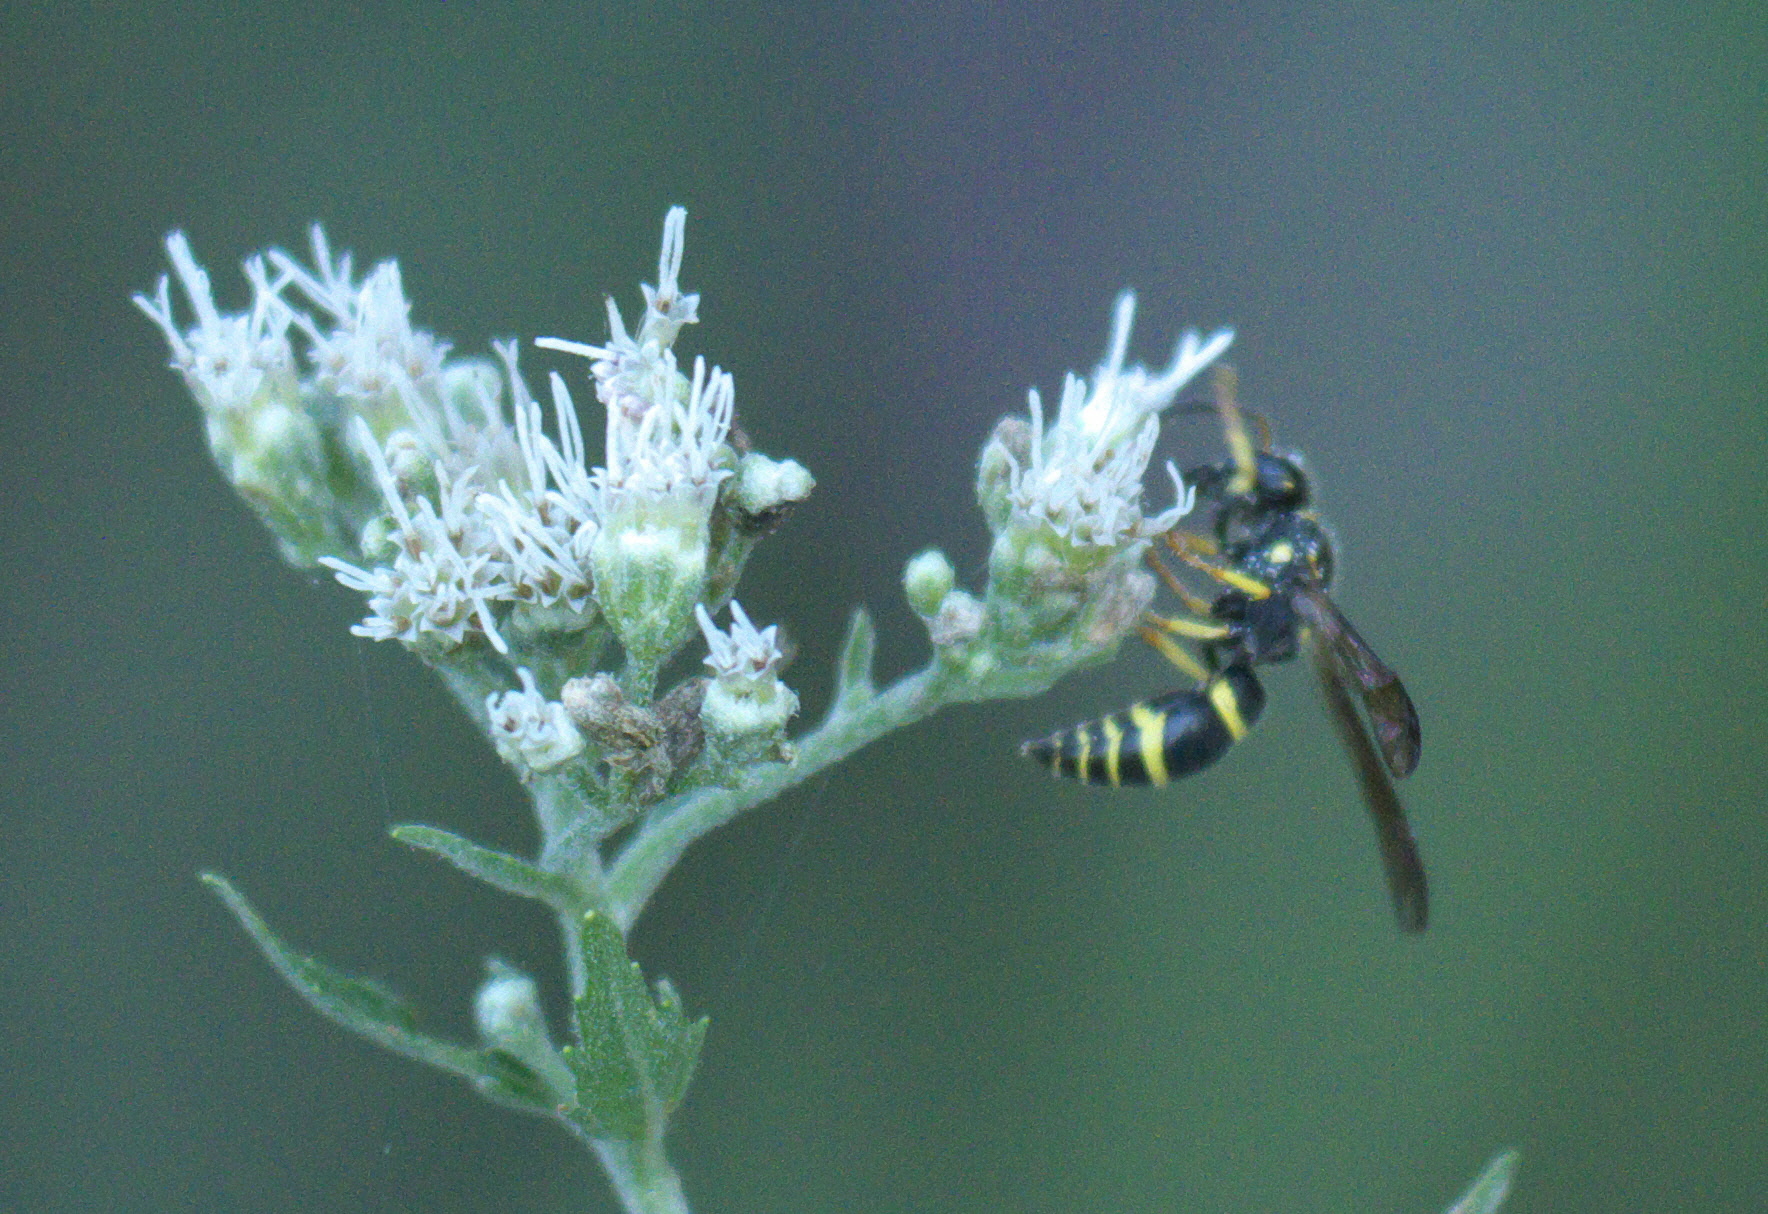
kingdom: Animalia
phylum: Arthropoda
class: Insecta
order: Hymenoptera
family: Vespidae
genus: Ancistrocerus
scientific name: Ancistrocerus adiabatus
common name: Bramble mason wasp
